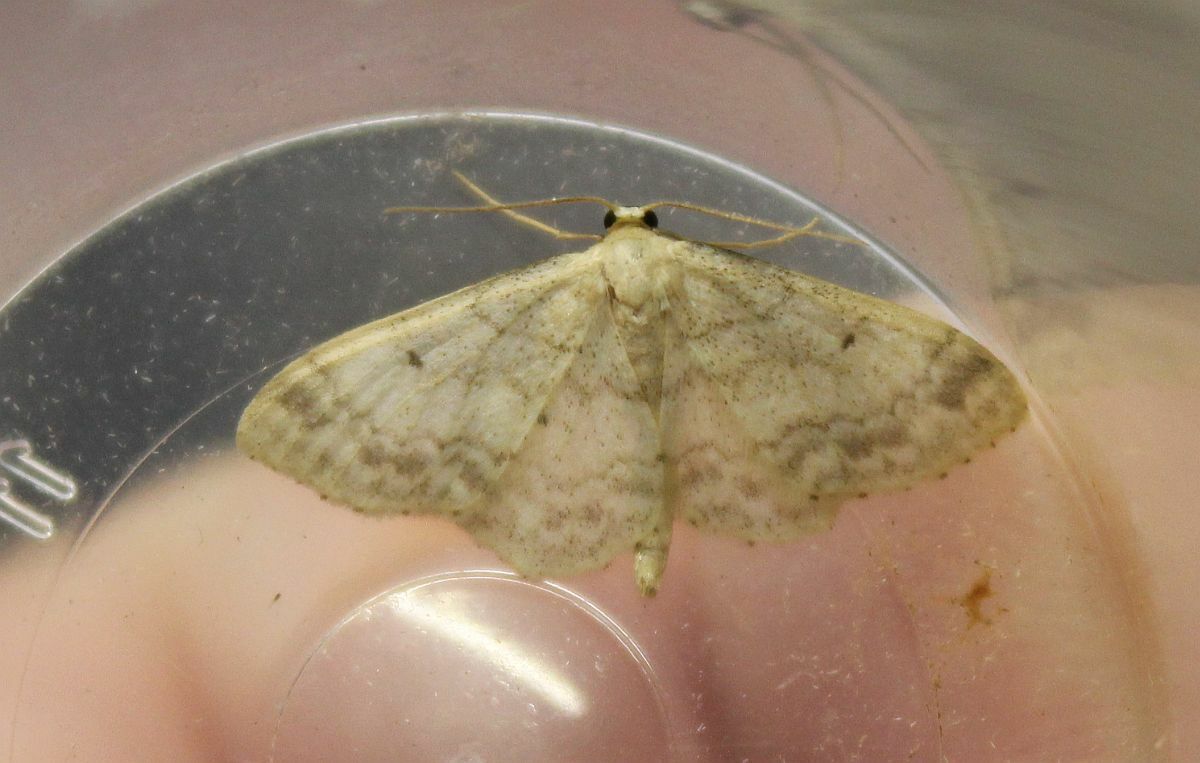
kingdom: Animalia
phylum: Arthropoda
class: Insecta
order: Lepidoptera
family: Geometridae
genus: Idaea
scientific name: Idaea biselata
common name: Small fan-footed wave
